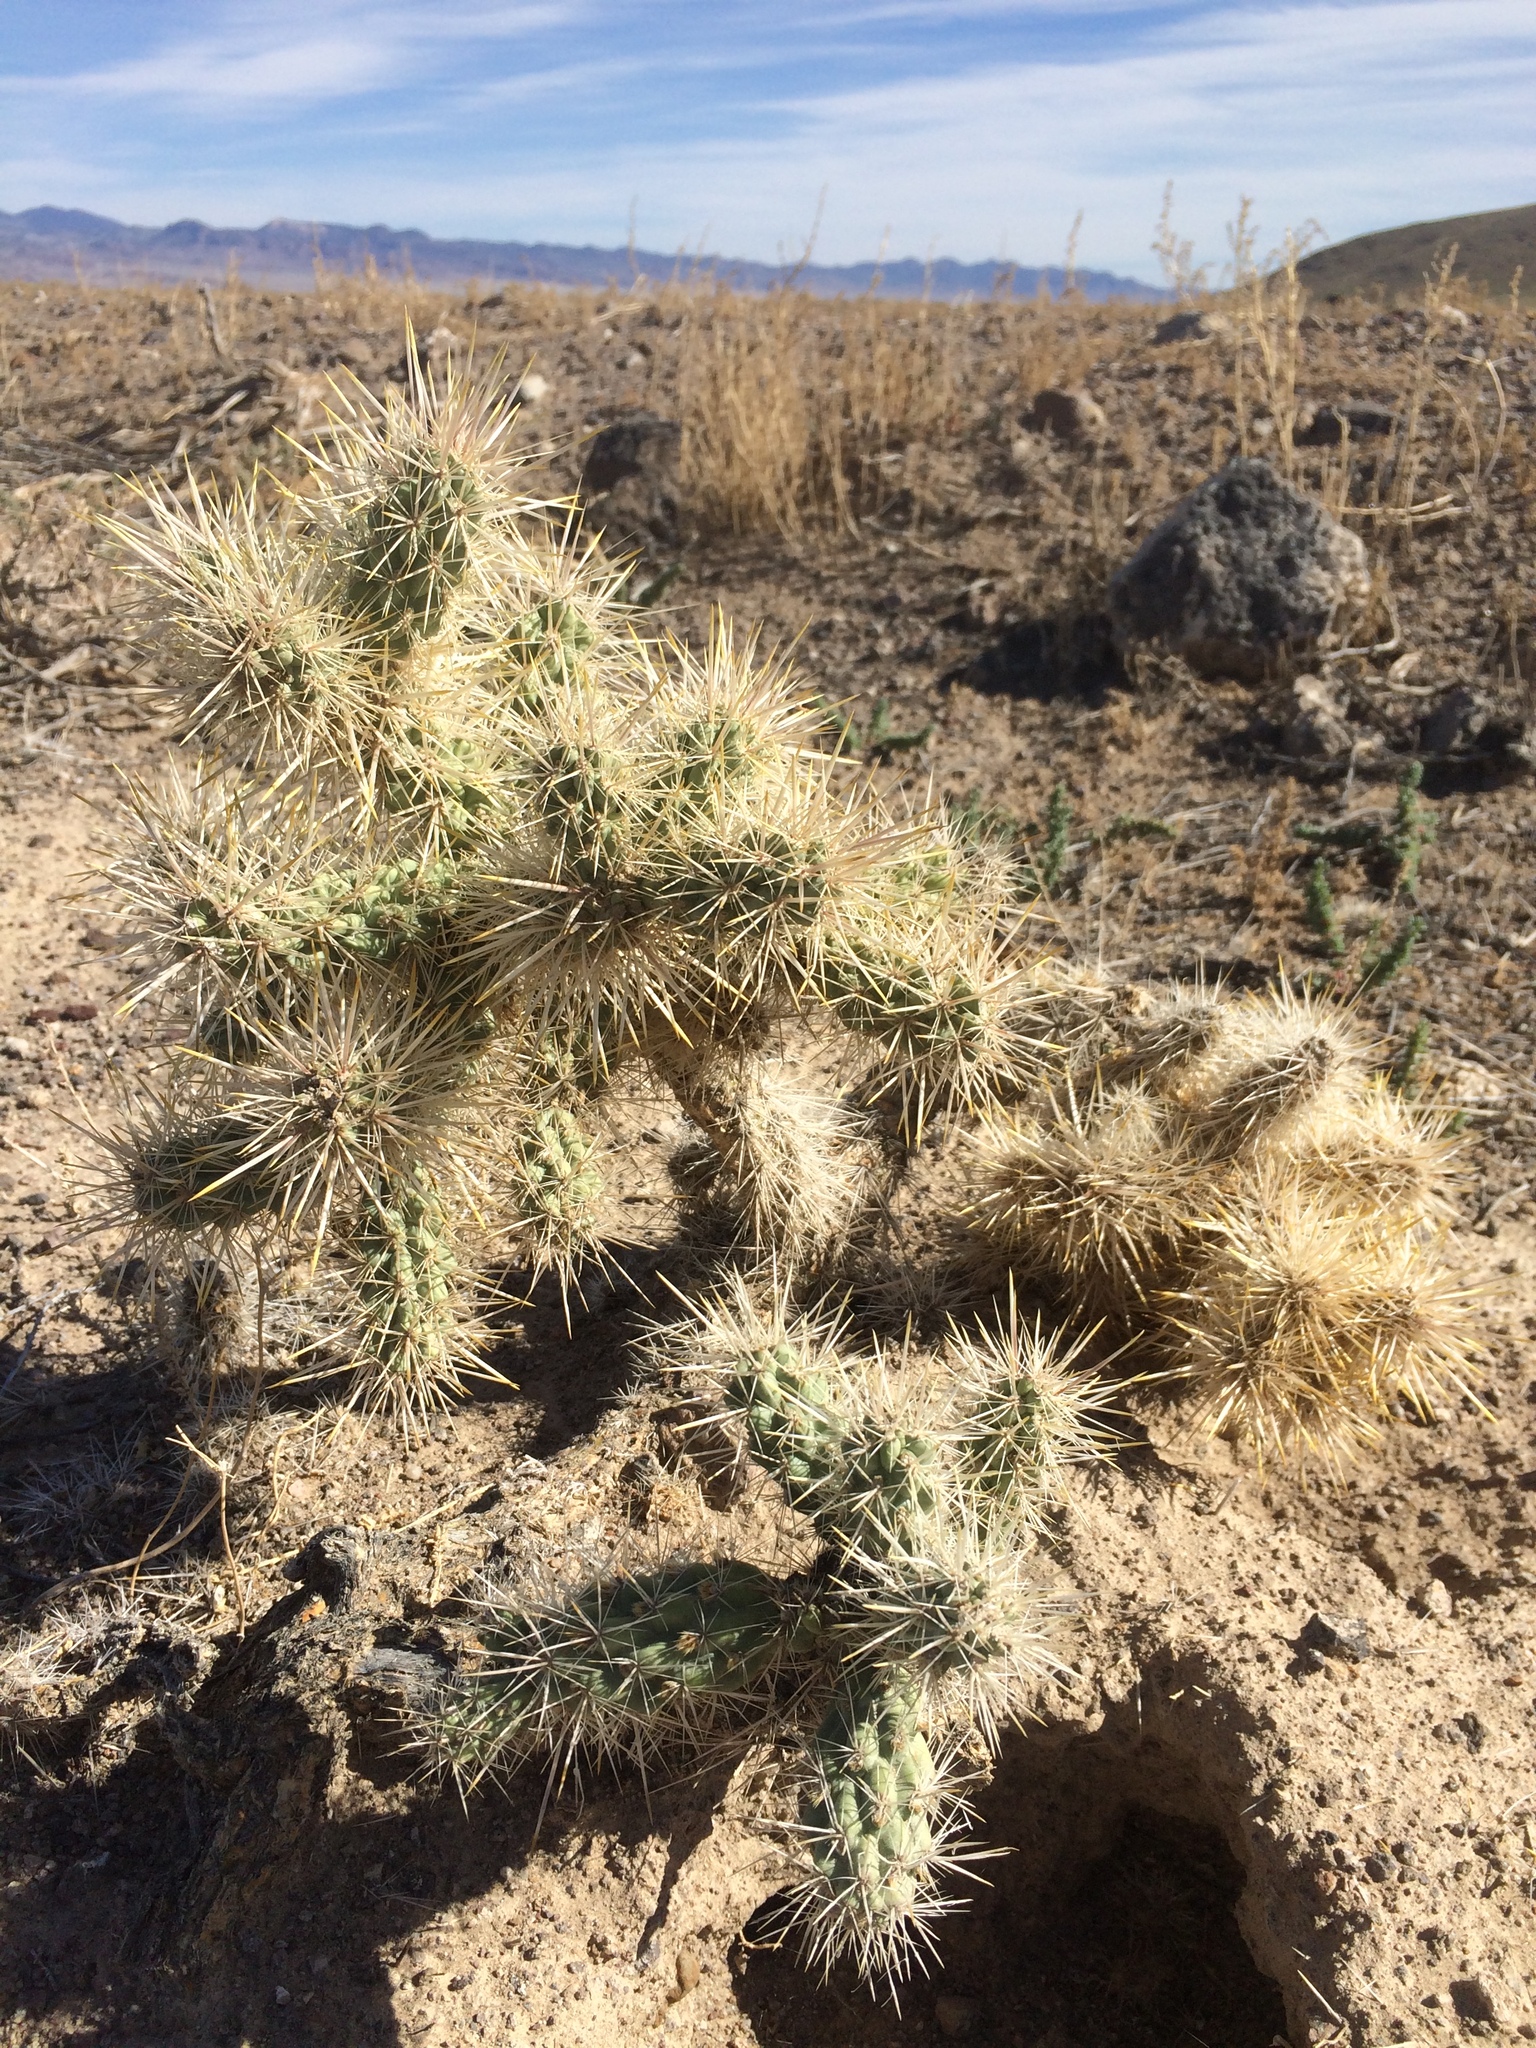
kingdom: Plantae
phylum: Tracheophyta
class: Magnoliopsida
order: Caryophyllales
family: Cactaceae
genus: Cylindropuntia
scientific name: Cylindropuntia echinocarpa
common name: Ground cholla
